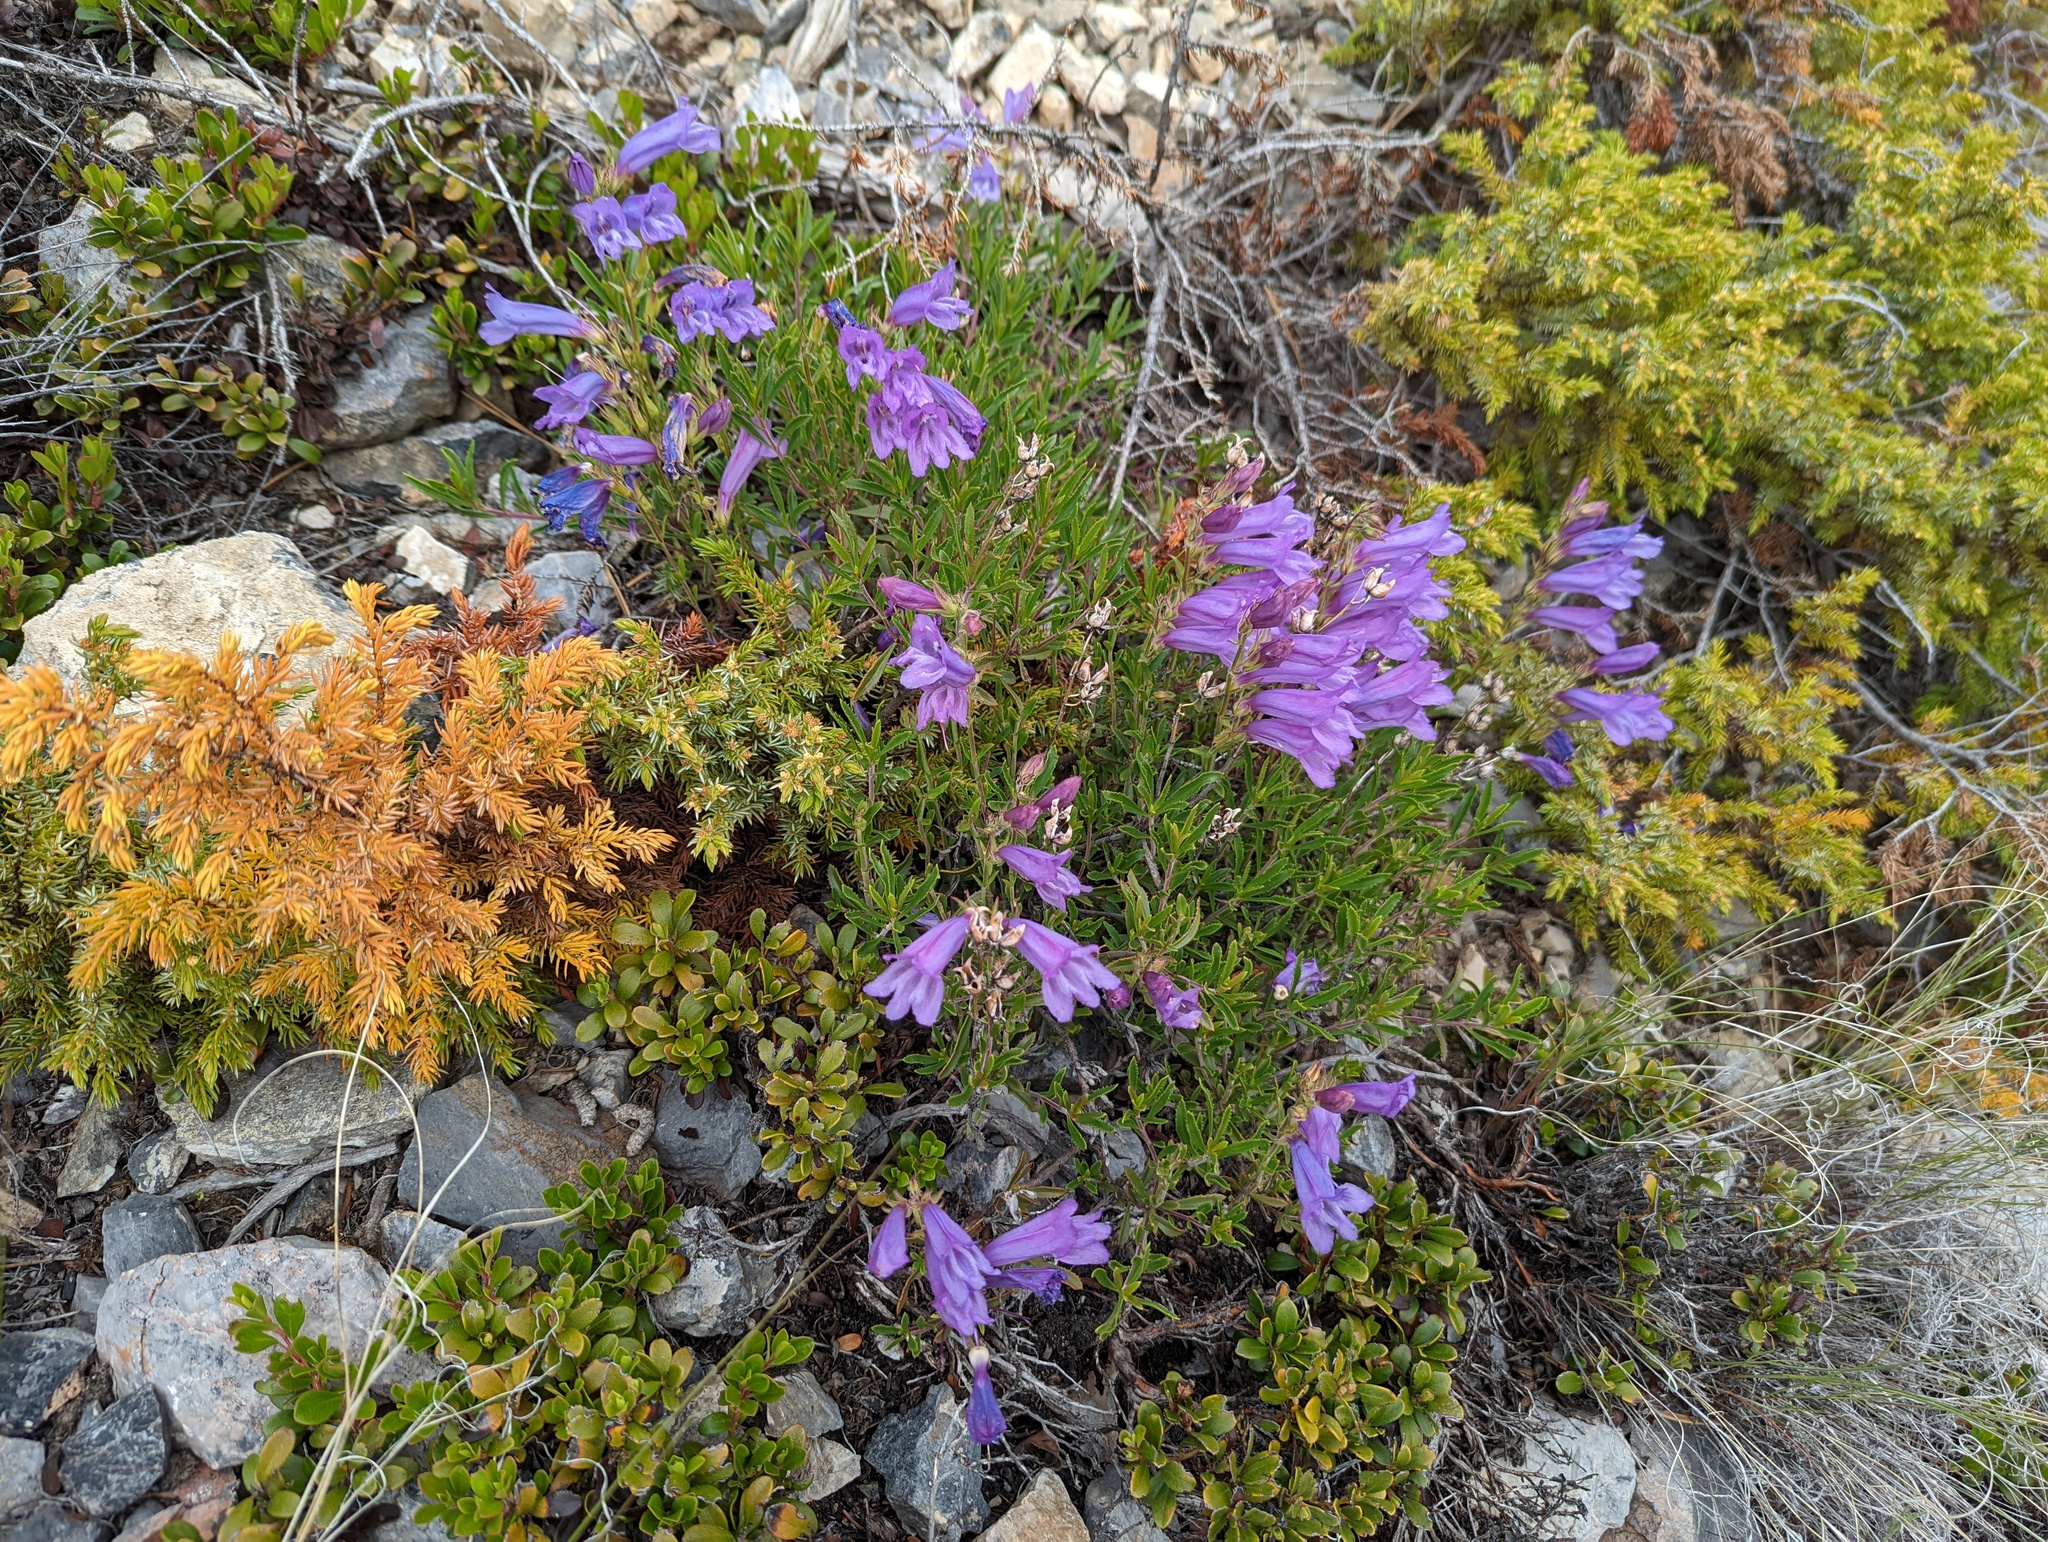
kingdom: Plantae
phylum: Tracheophyta
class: Magnoliopsida
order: Lamiales
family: Plantaginaceae
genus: Penstemon
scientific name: Penstemon fruticosus
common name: Bush penstemon
